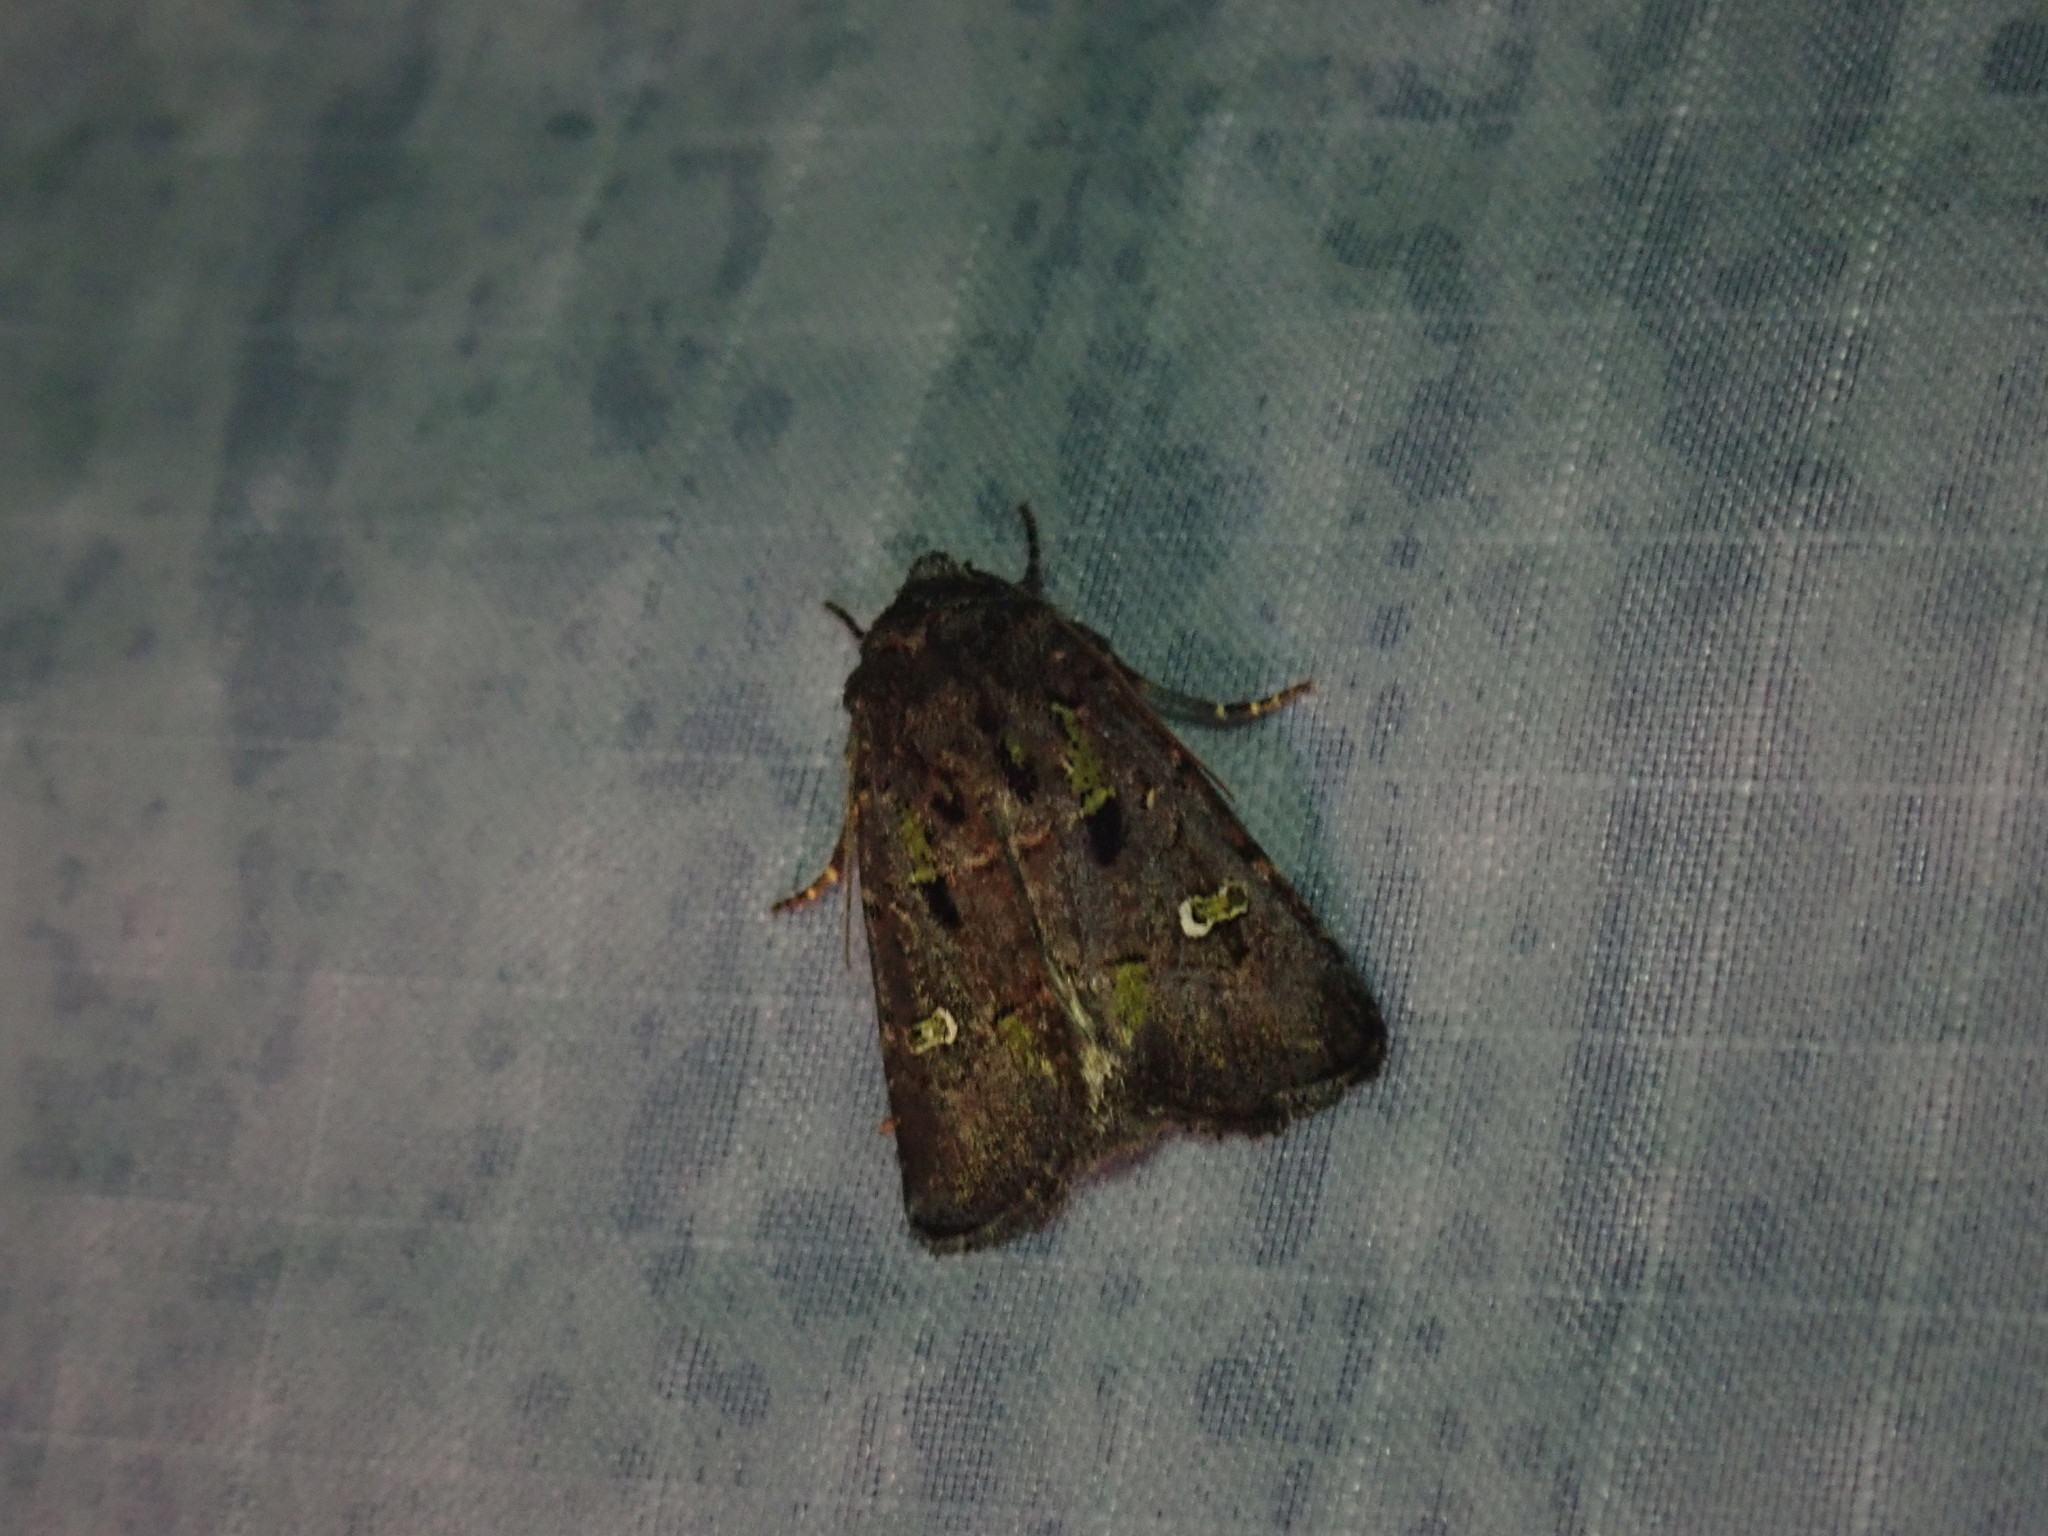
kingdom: Animalia
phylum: Arthropoda
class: Insecta
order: Lepidoptera
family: Noctuidae
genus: Lacinipolia
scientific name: Lacinipolia renigera
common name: Kidney-spotted minor
